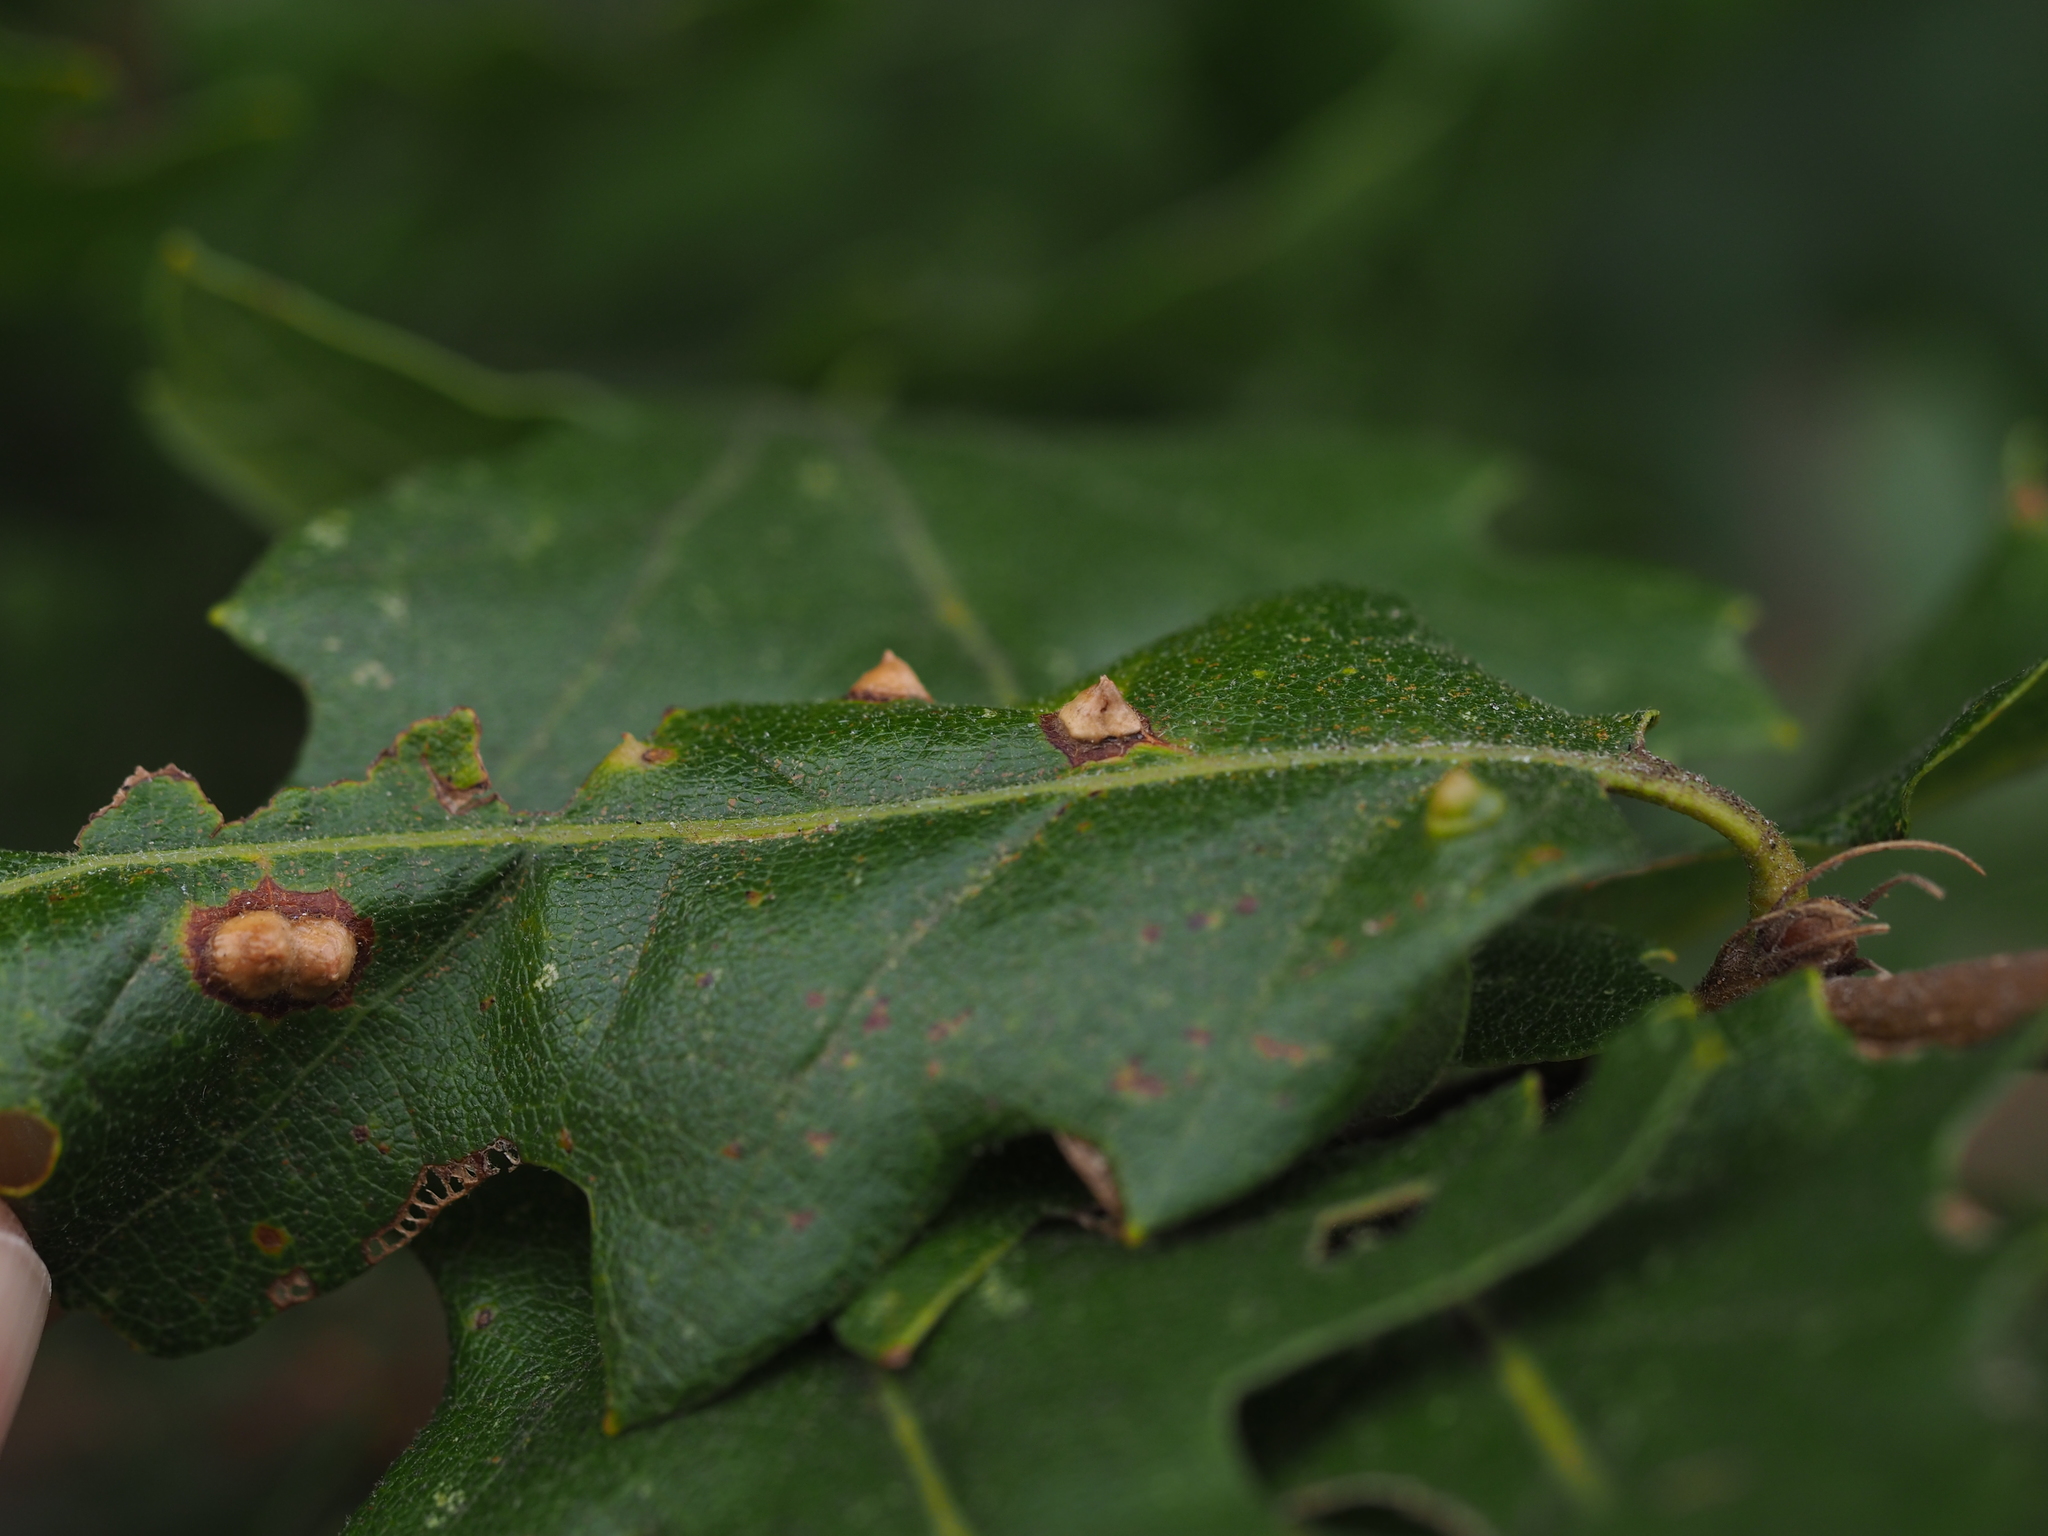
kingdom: Animalia
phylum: Arthropoda
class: Insecta
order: Diptera
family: Cecidomyiidae
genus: Janetia
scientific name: Janetia cerris
